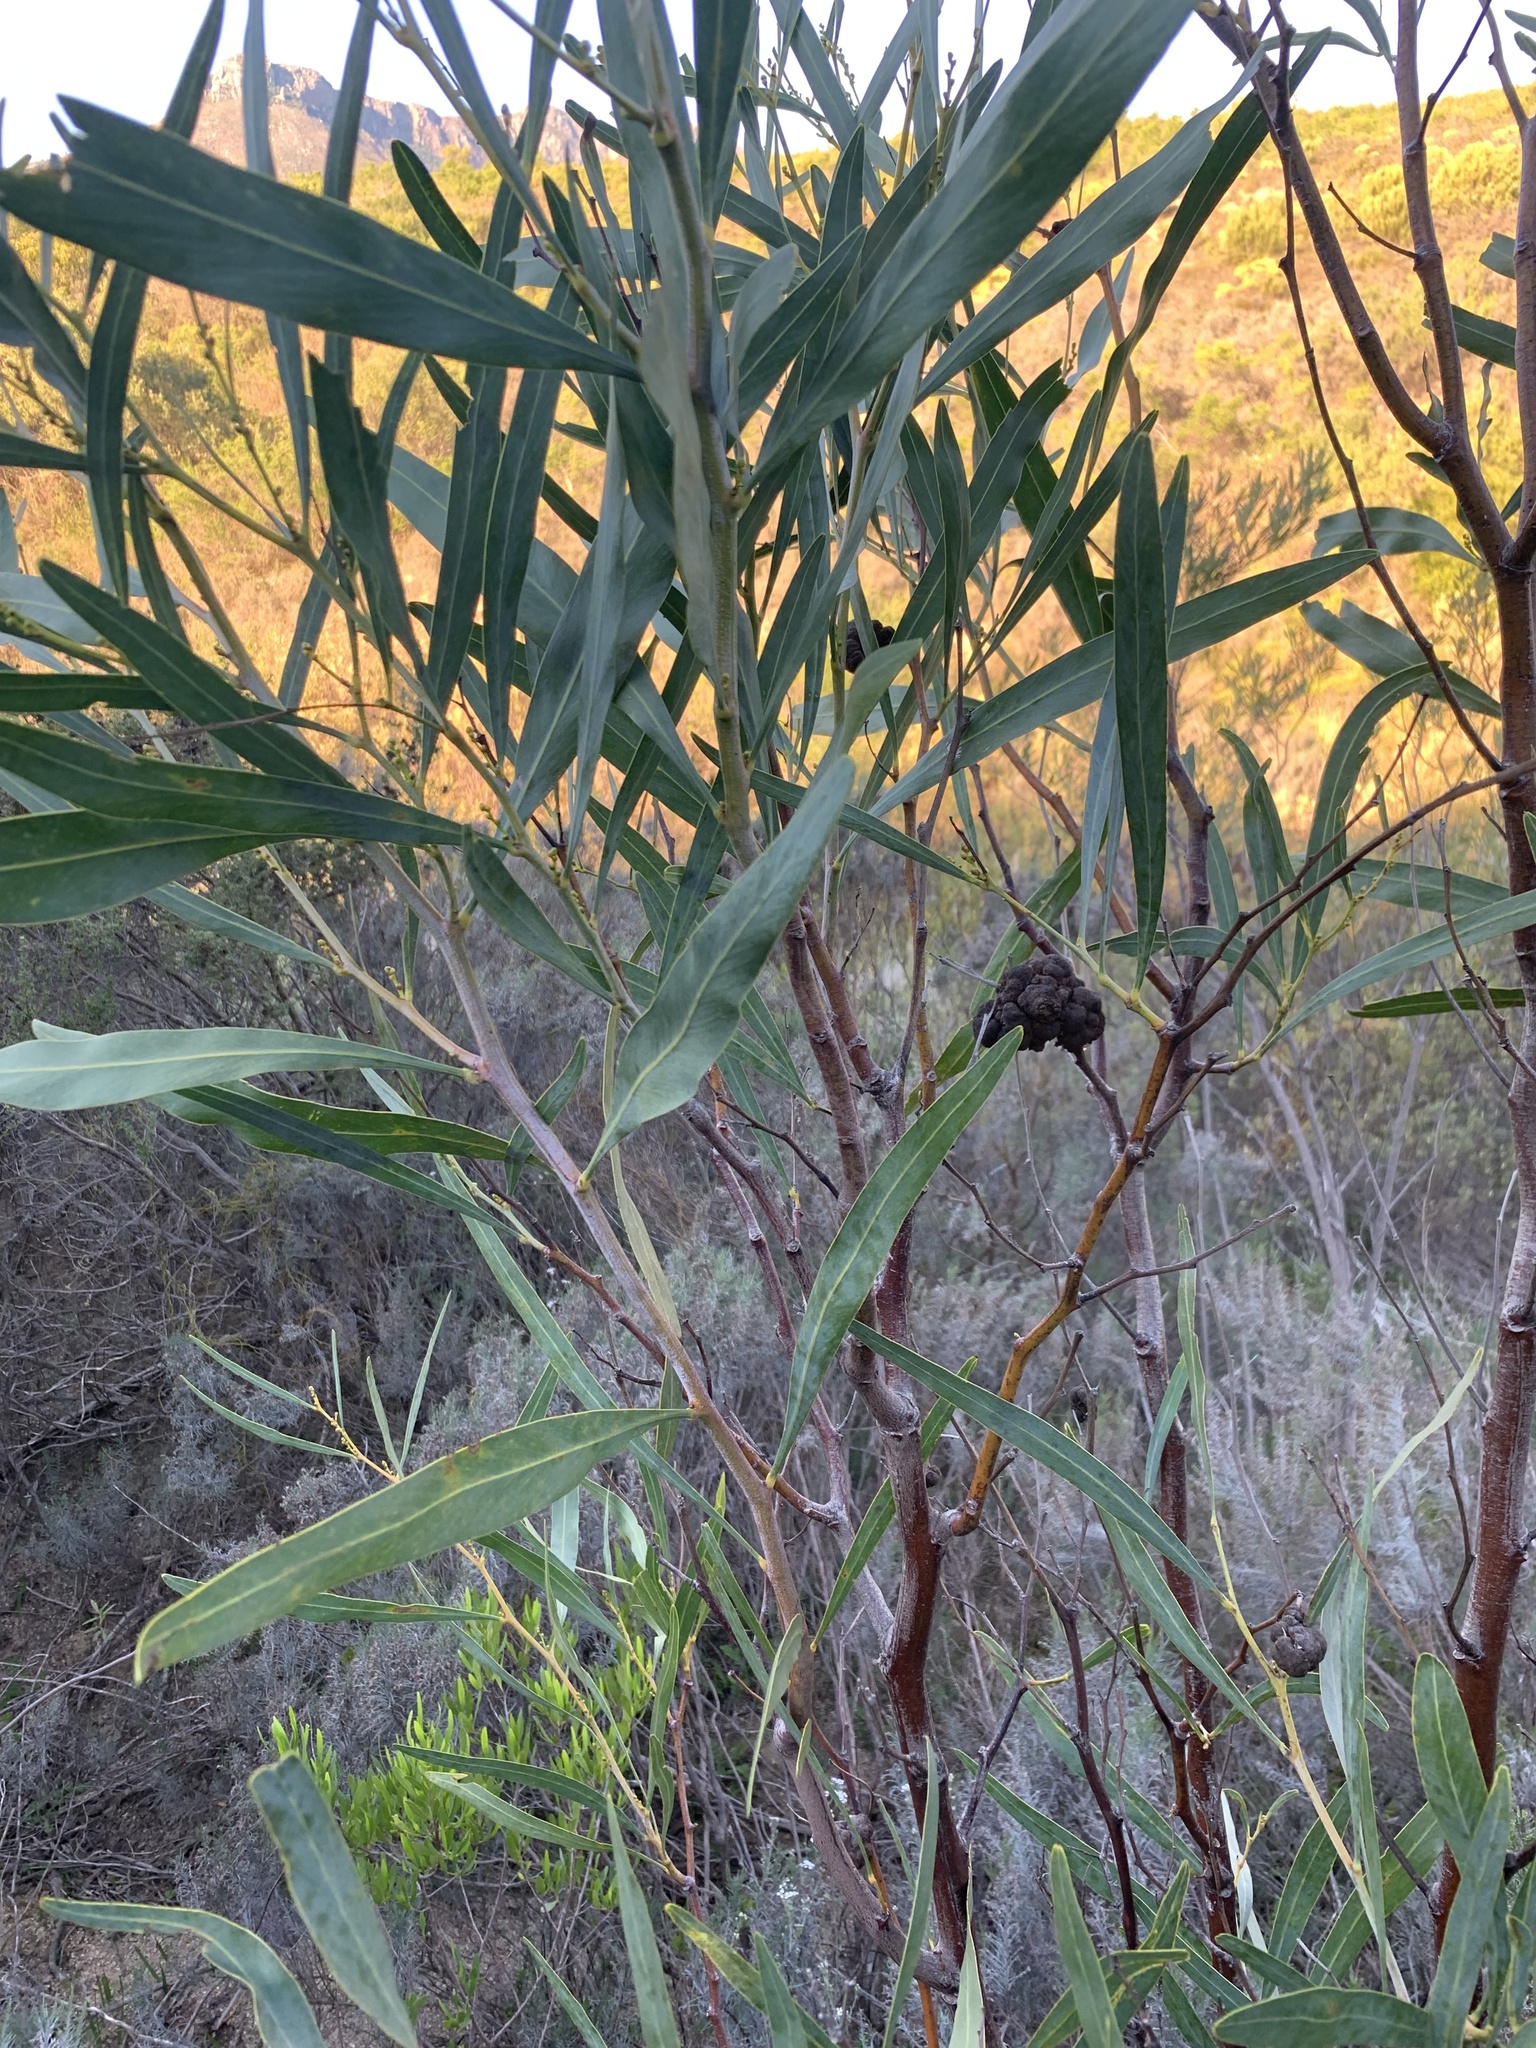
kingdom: Plantae
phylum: Tracheophyta
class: Magnoliopsida
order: Fabales
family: Fabaceae
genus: Acacia
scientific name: Acacia saligna
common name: Orange wattle
